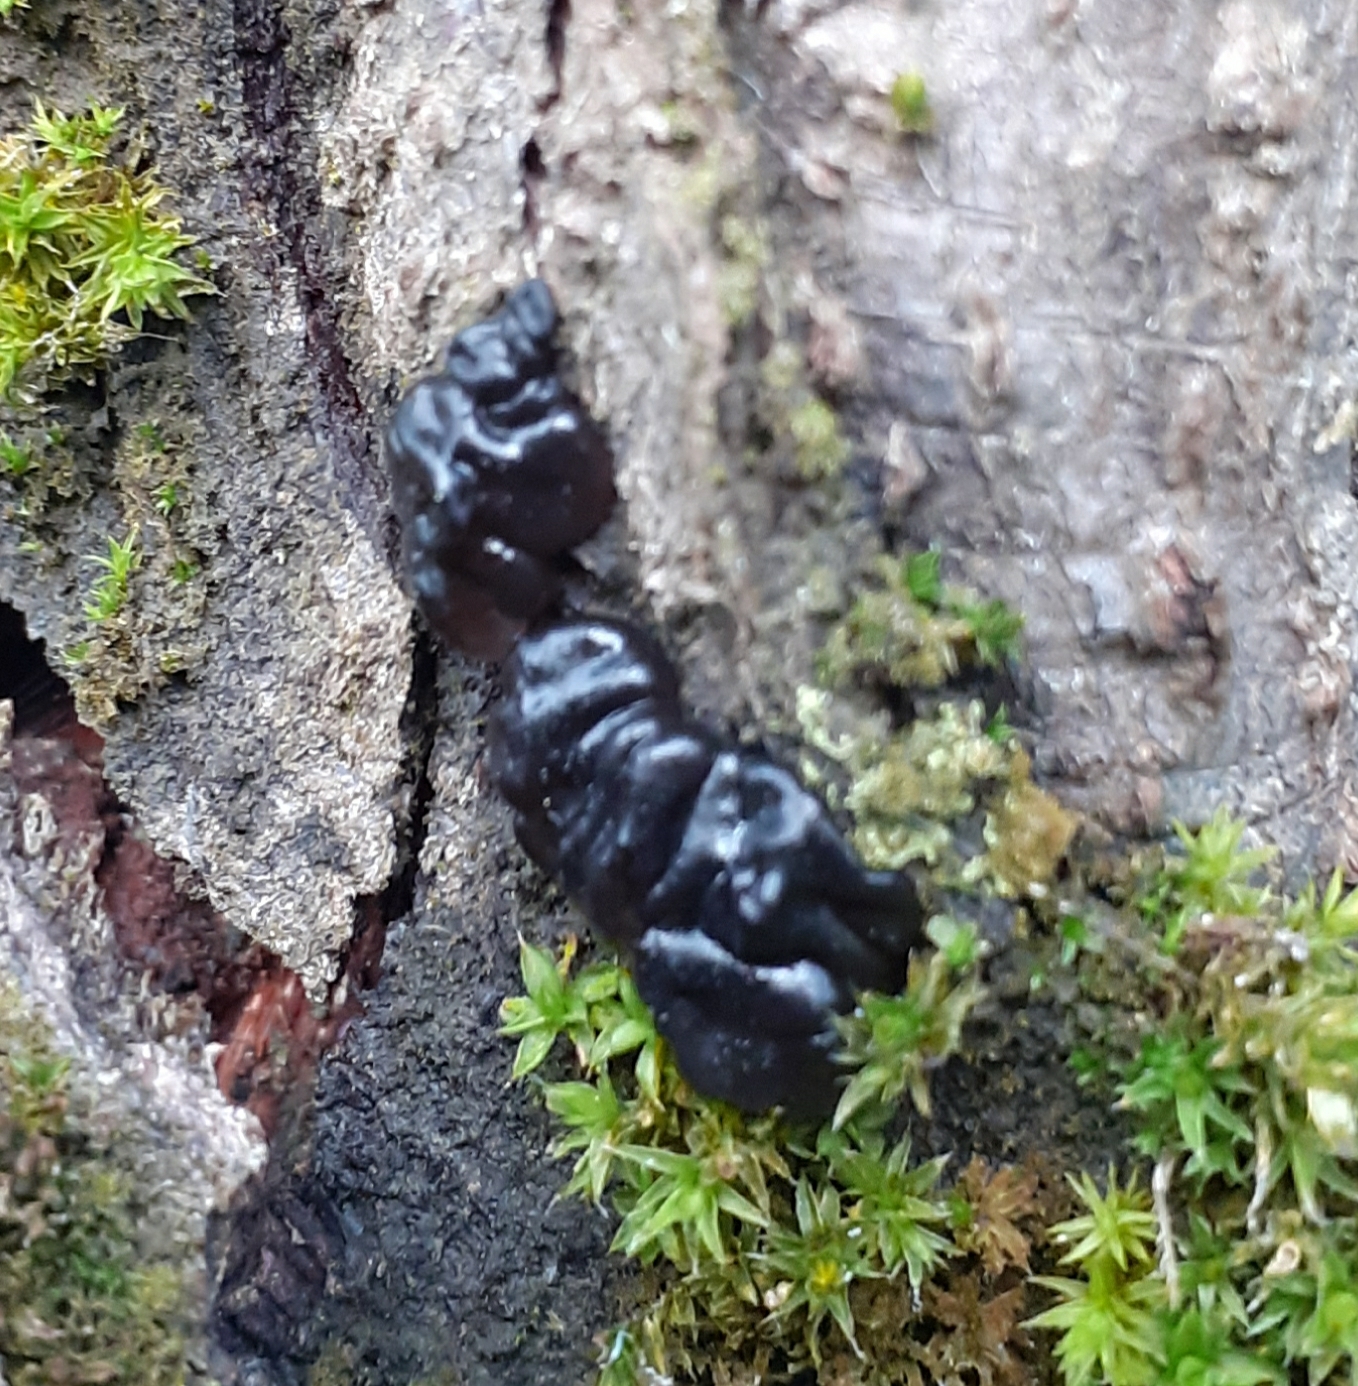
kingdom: Fungi
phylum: Basidiomycota
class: Agaricomycetes
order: Auriculariales
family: Auriculariaceae
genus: Exidia
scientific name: Exidia glandulosa
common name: Witches' butter
